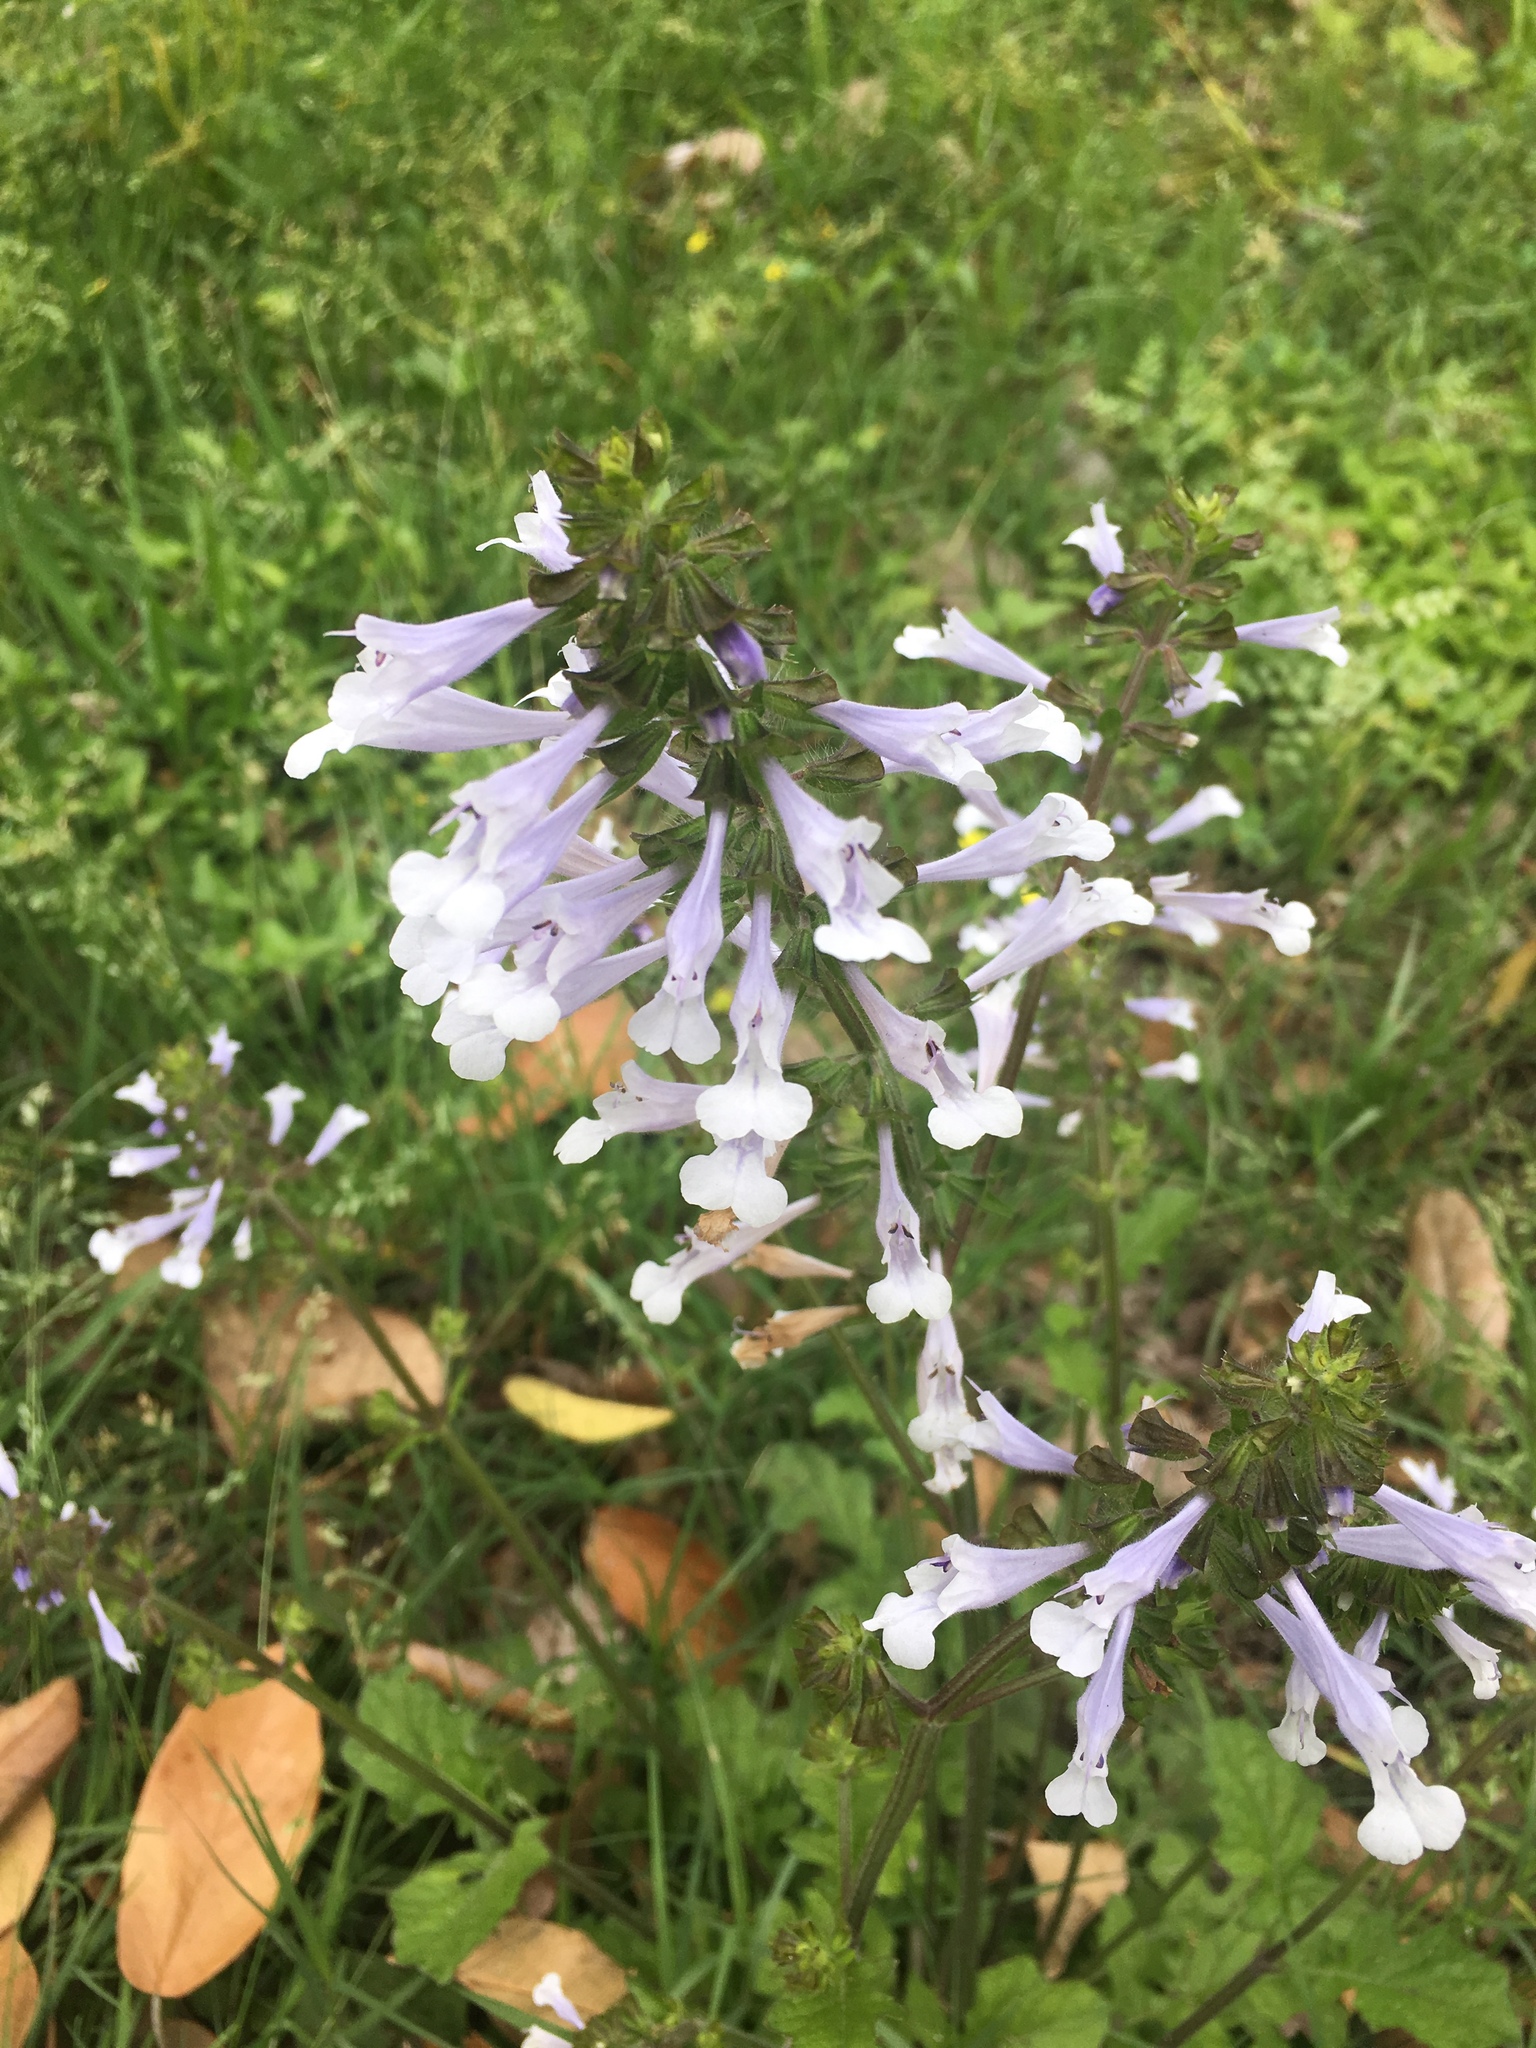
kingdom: Plantae
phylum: Tracheophyta
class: Magnoliopsida
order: Lamiales
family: Lamiaceae
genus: Salvia
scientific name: Salvia lyrata
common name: Cancerweed
